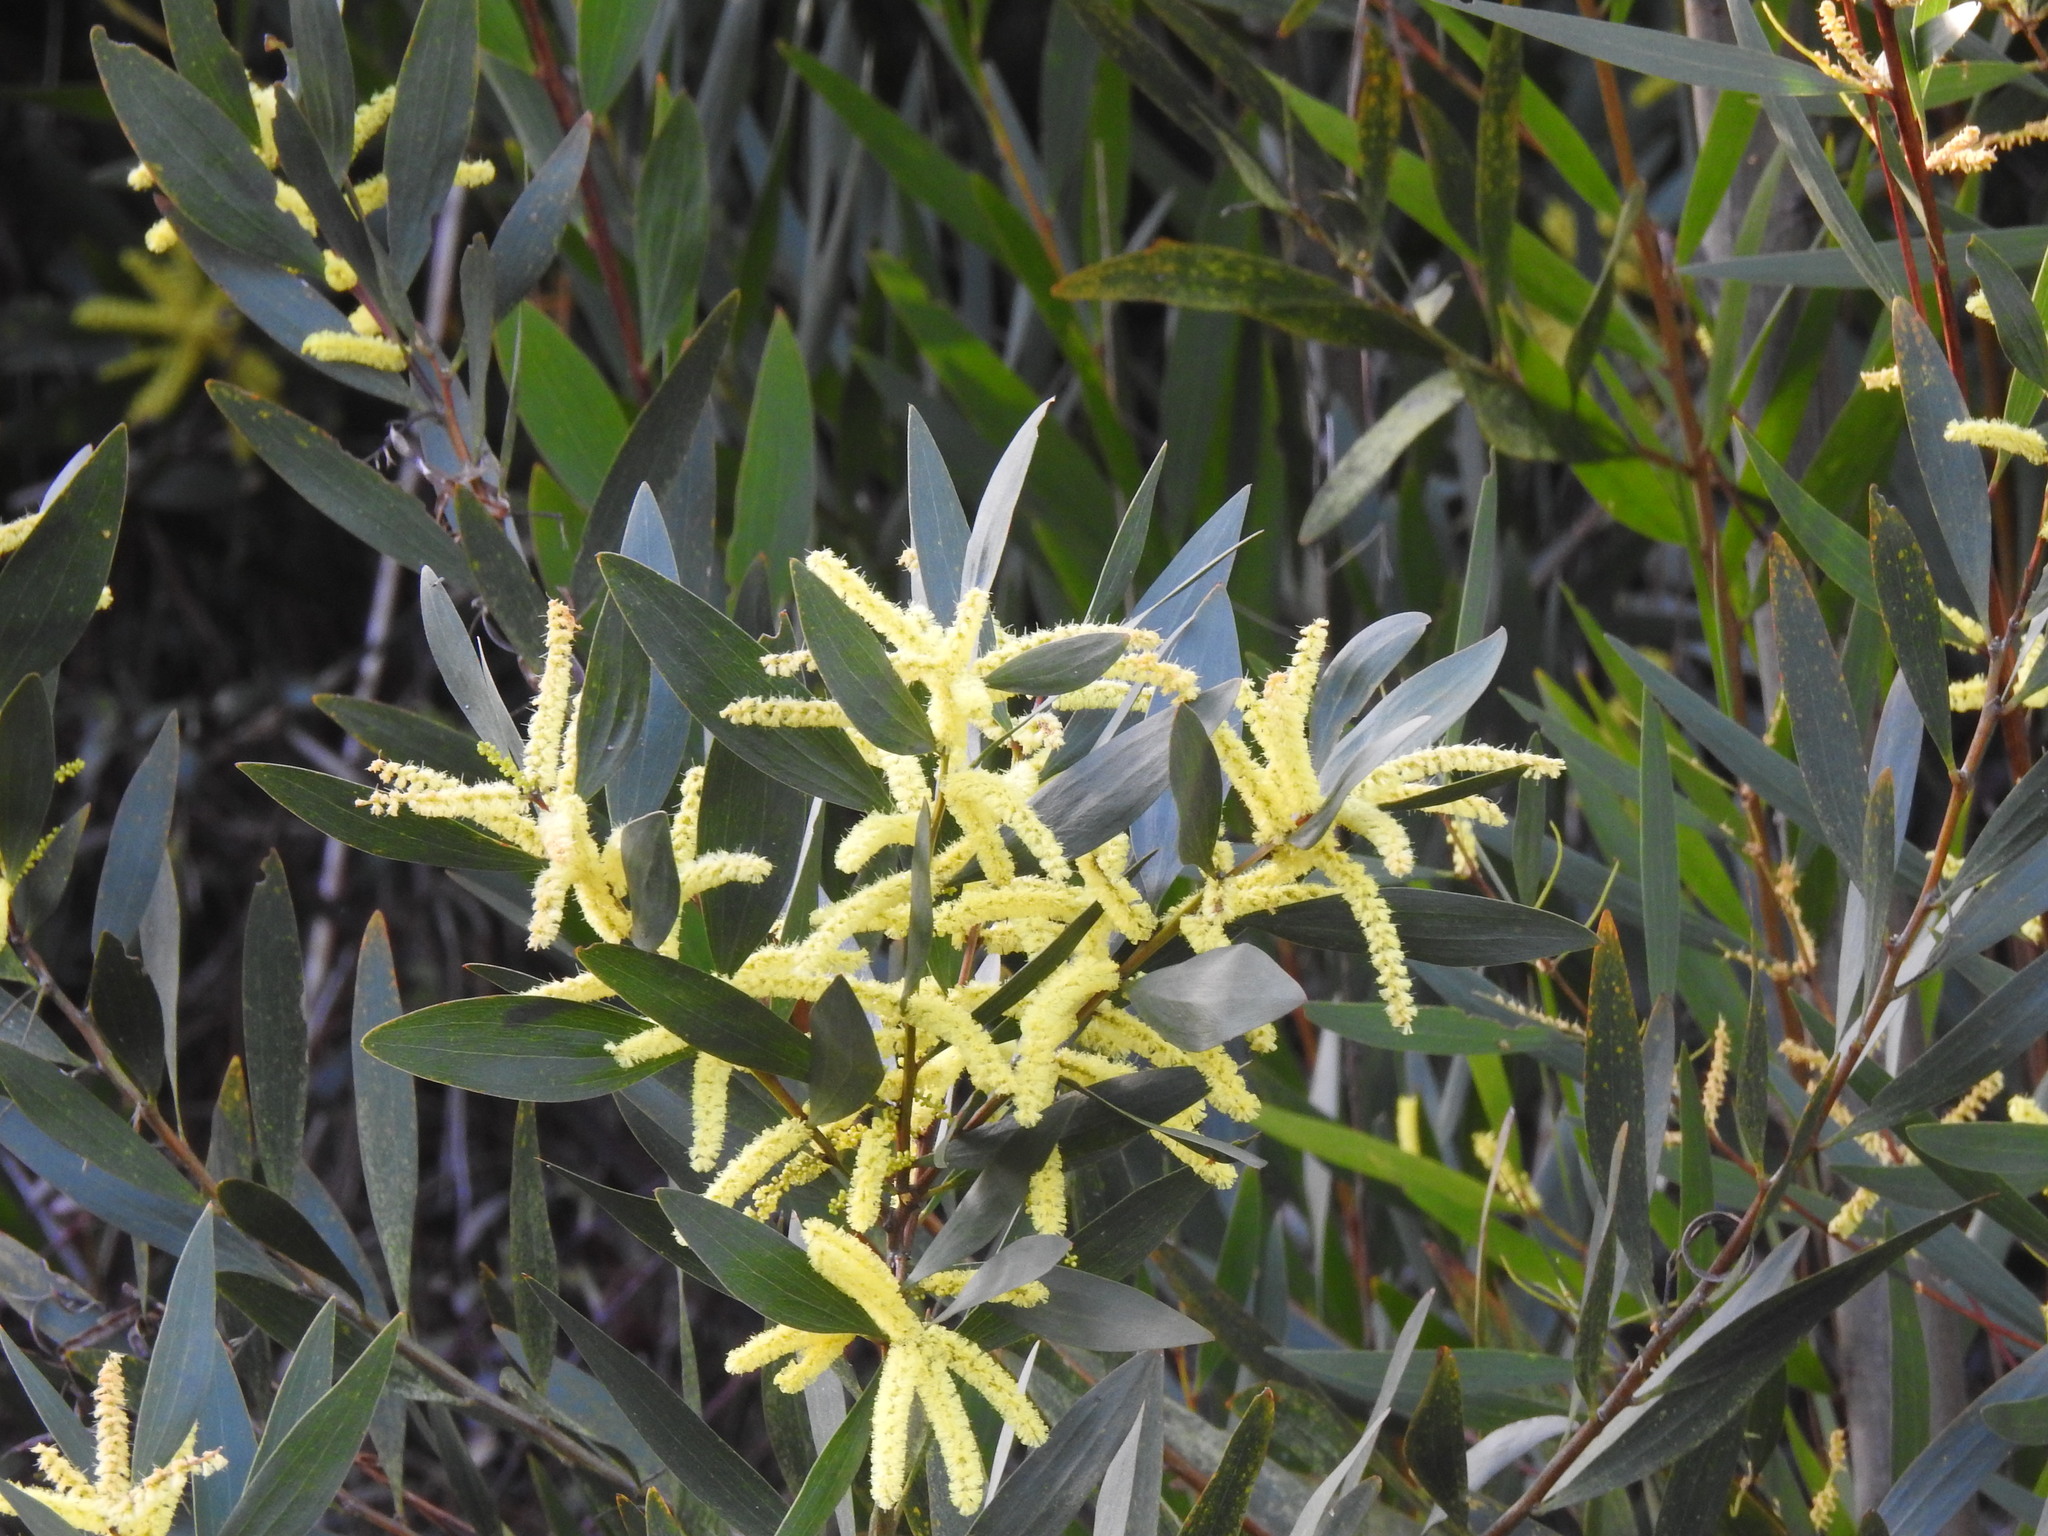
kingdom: Plantae
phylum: Tracheophyta
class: Magnoliopsida
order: Fabales
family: Fabaceae
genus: Acacia
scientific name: Acacia longifolia
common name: Sydney golden wattle
